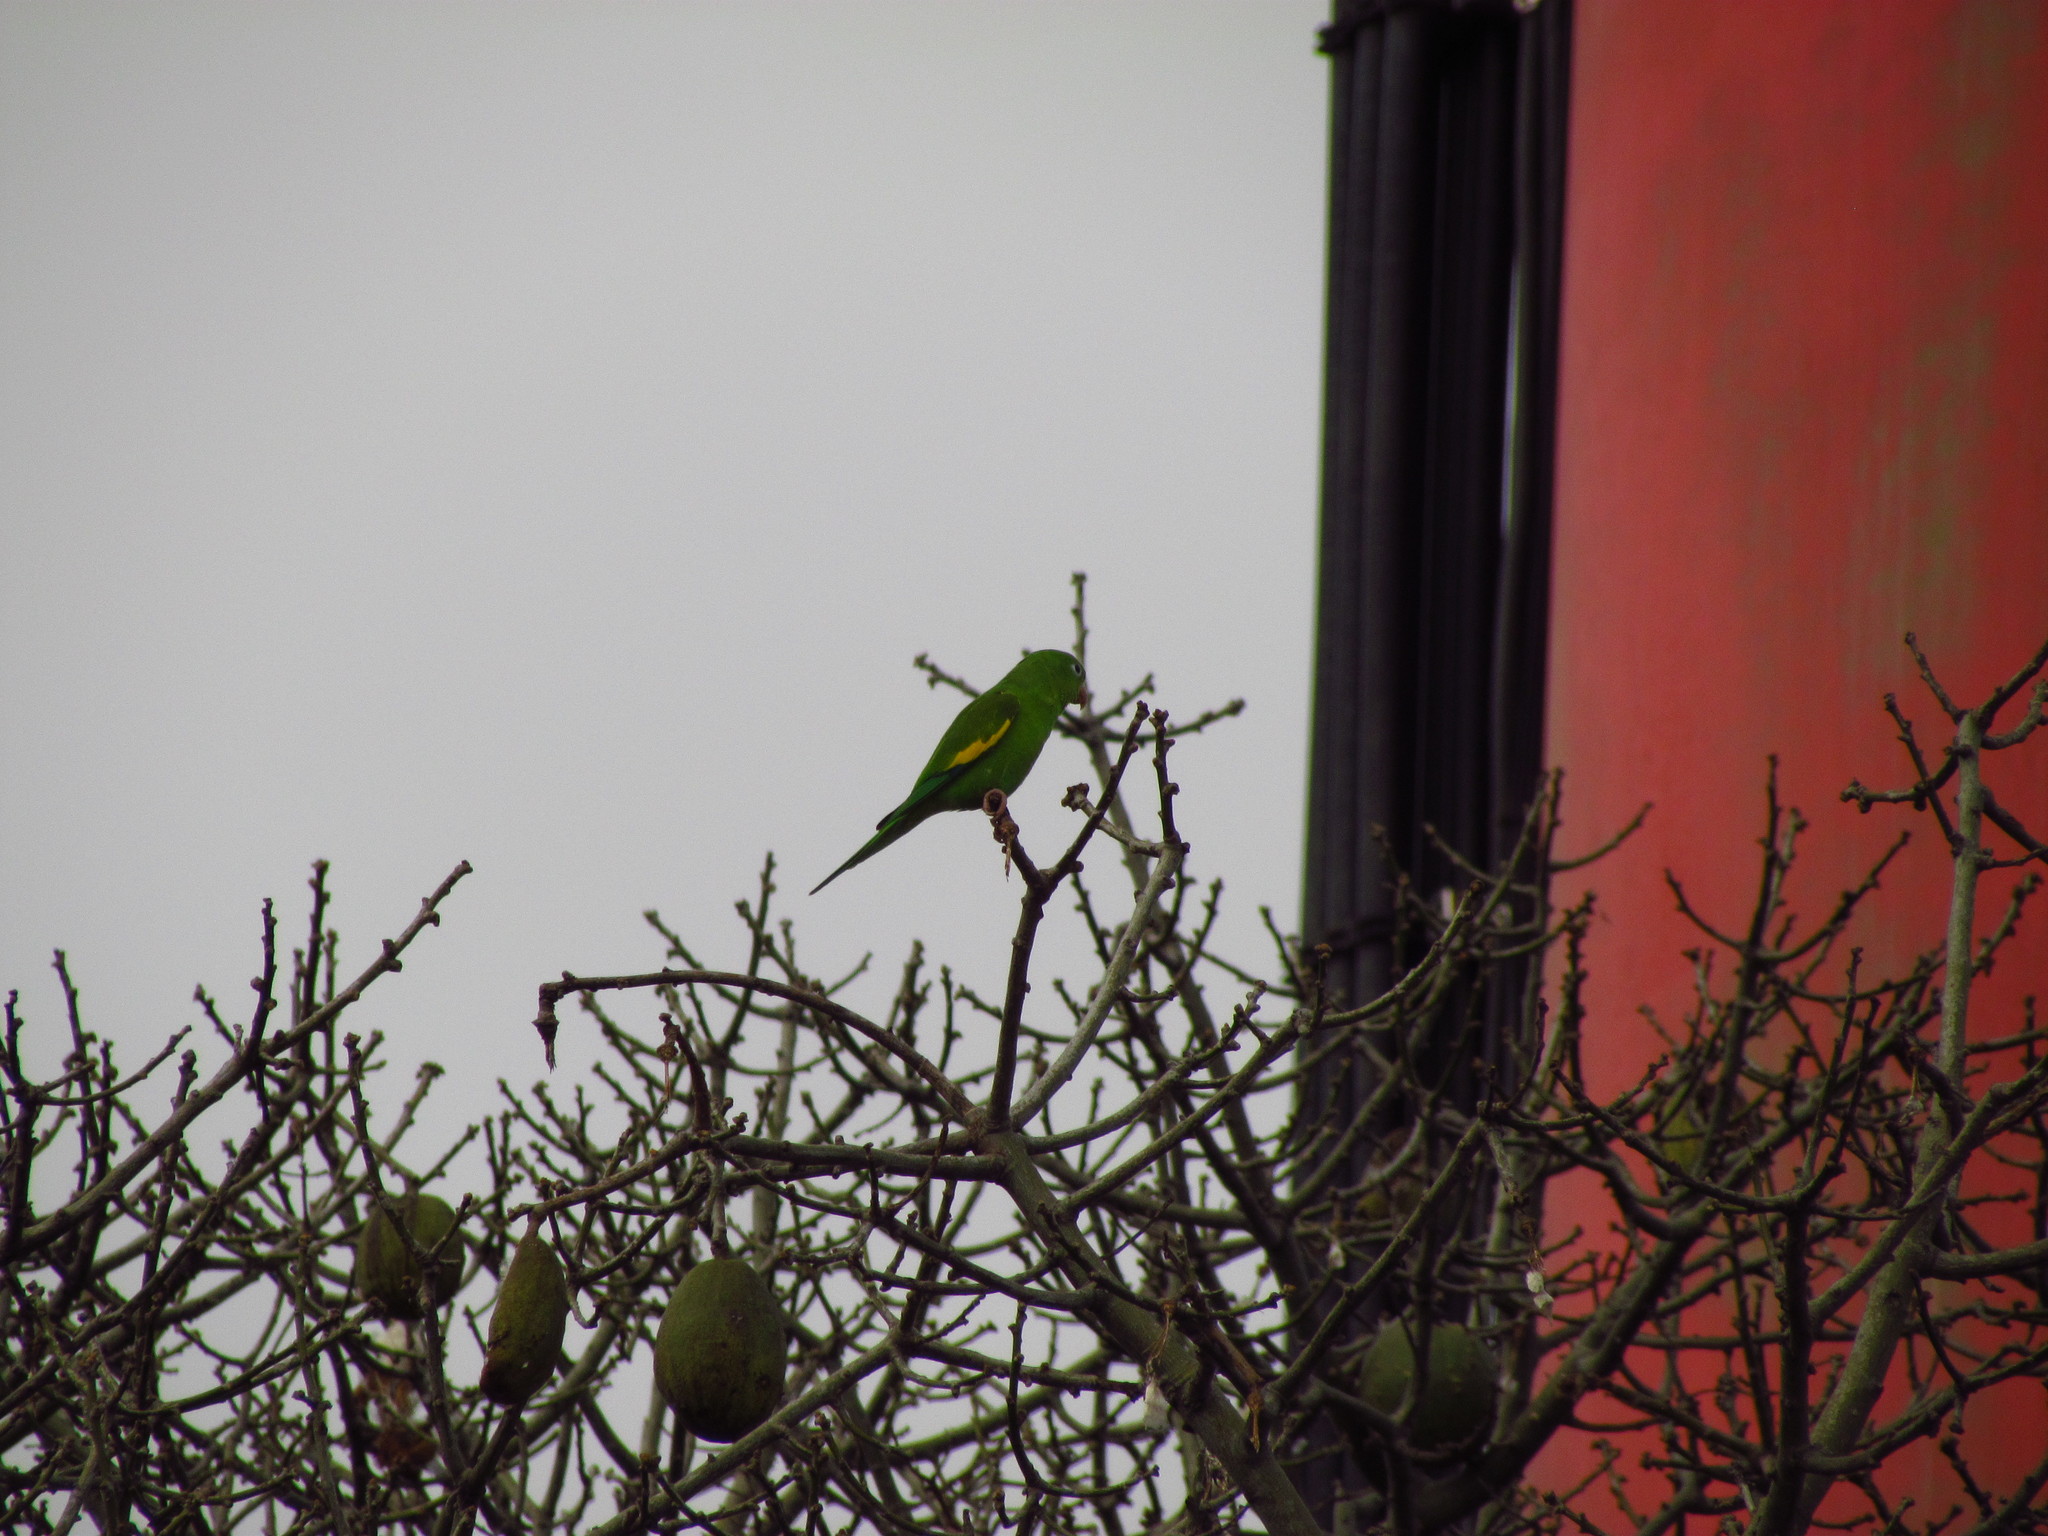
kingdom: Animalia
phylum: Chordata
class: Aves
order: Psittaciformes
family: Psittacidae
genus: Brotogeris
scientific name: Brotogeris chiriri
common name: Yellow-chevroned parakeet
